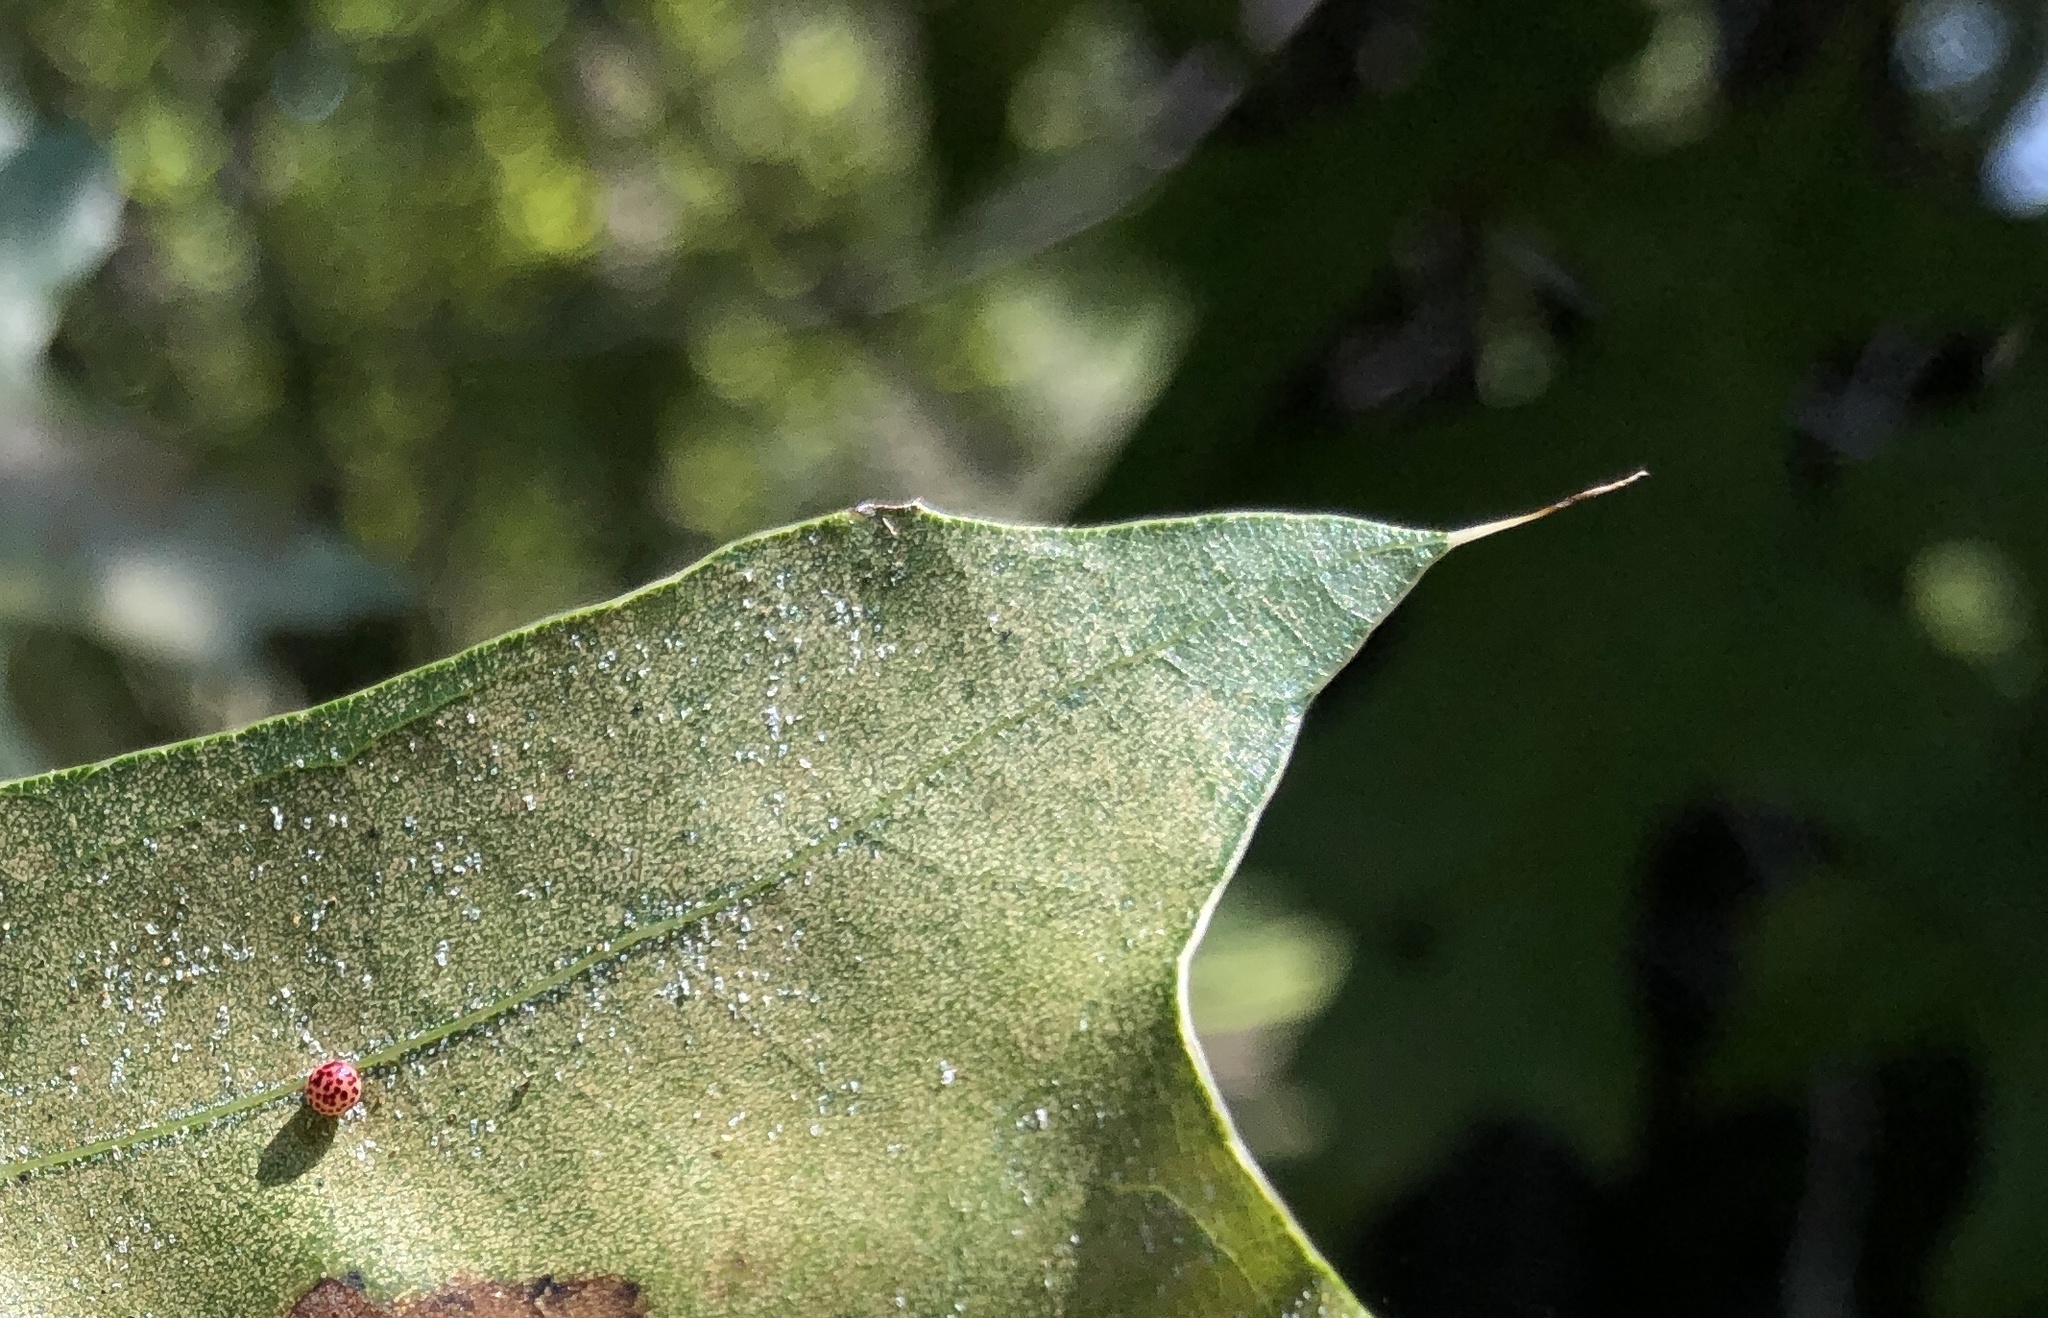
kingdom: Animalia
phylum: Arthropoda
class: Insecta
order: Hymenoptera
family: Cynipidae
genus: Zopheroteras
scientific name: Zopheroteras
